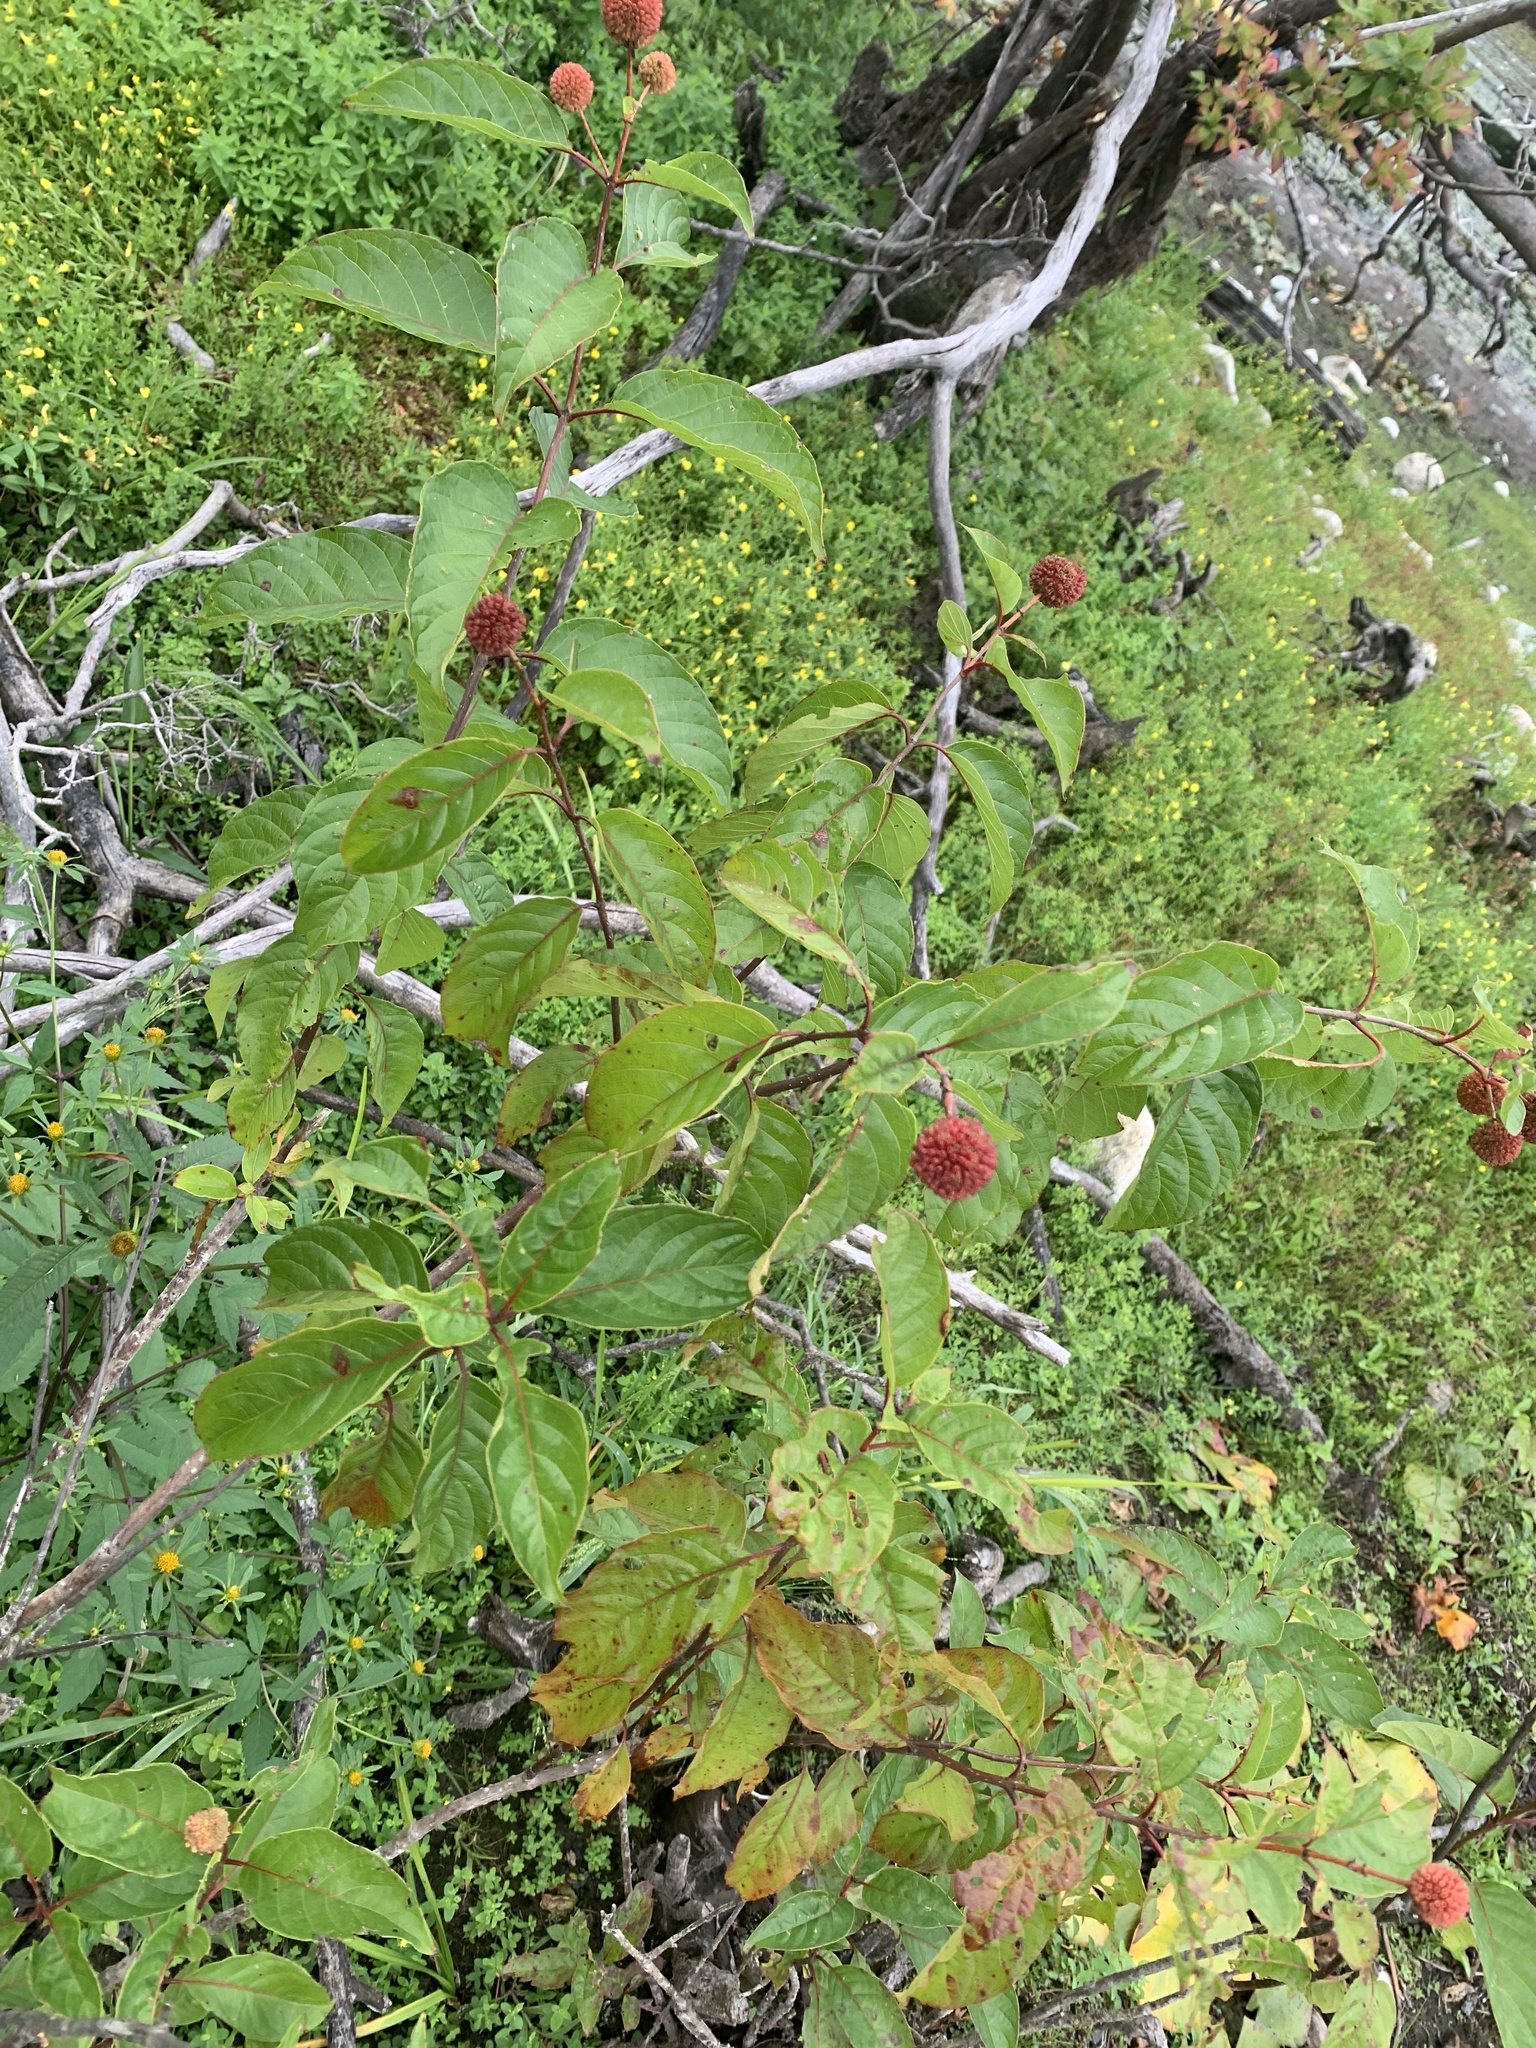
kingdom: Plantae
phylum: Tracheophyta
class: Magnoliopsida
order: Gentianales
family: Rubiaceae
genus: Cephalanthus
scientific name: Cephalanthus occidentalis
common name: Button-willow
